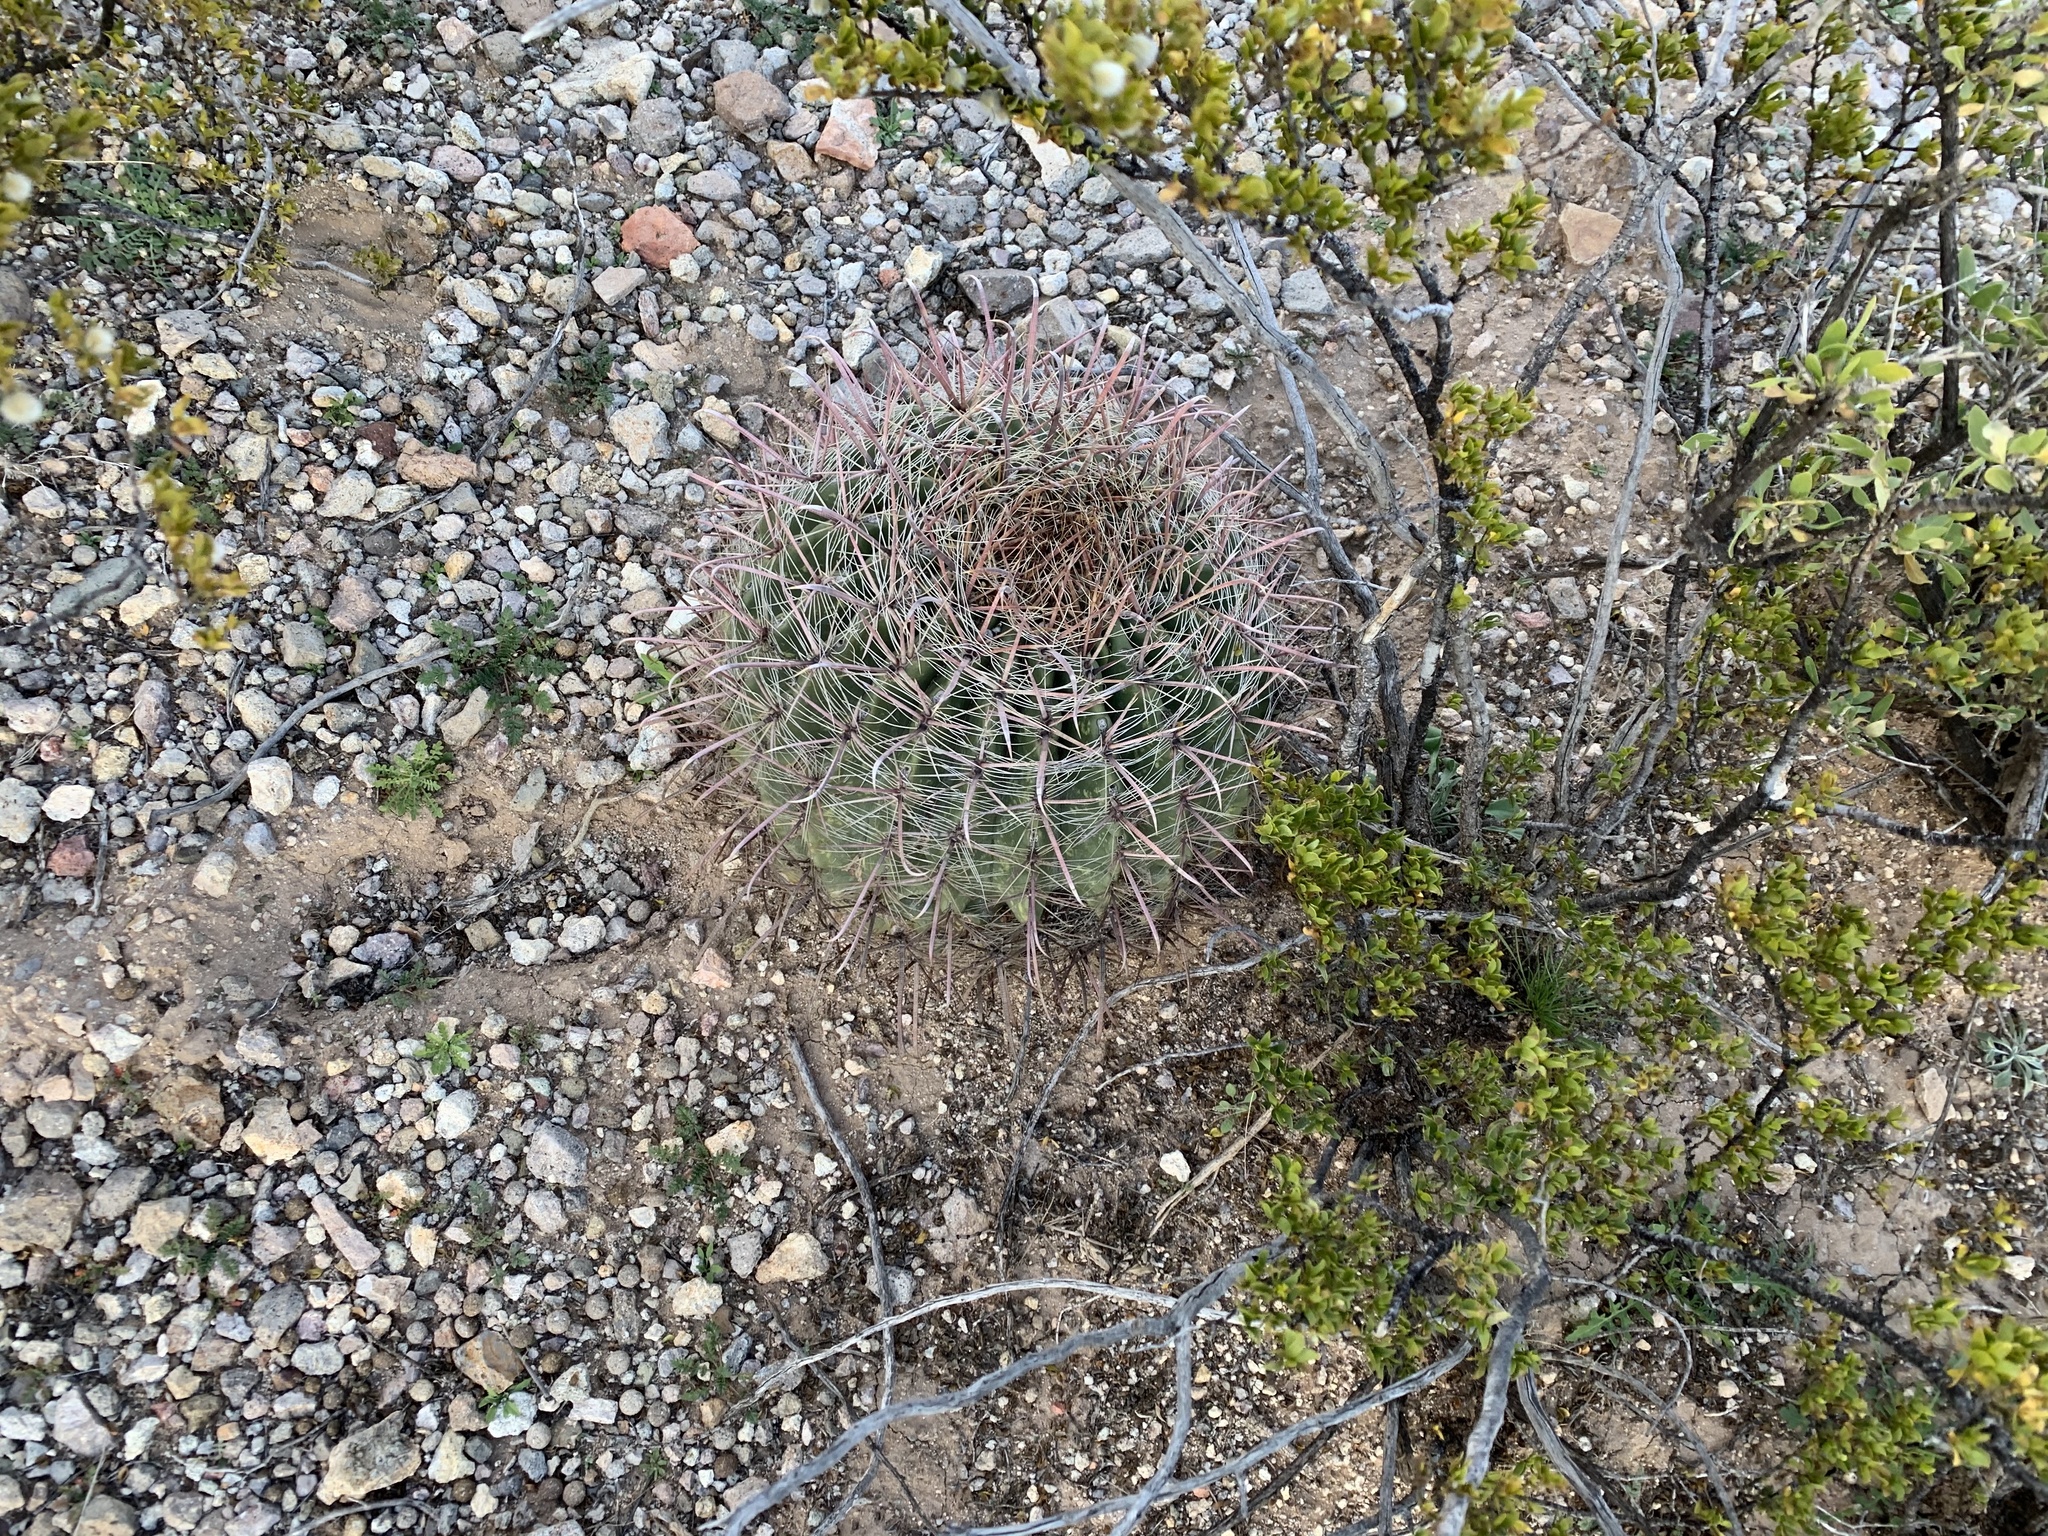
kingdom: Plantae
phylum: Tracheophyta
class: Magnoliopsida
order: Caryophyllales
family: Cactaceae
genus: Ferocactus
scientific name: Ferocactus wislizeni
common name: Candy barrel cactus
